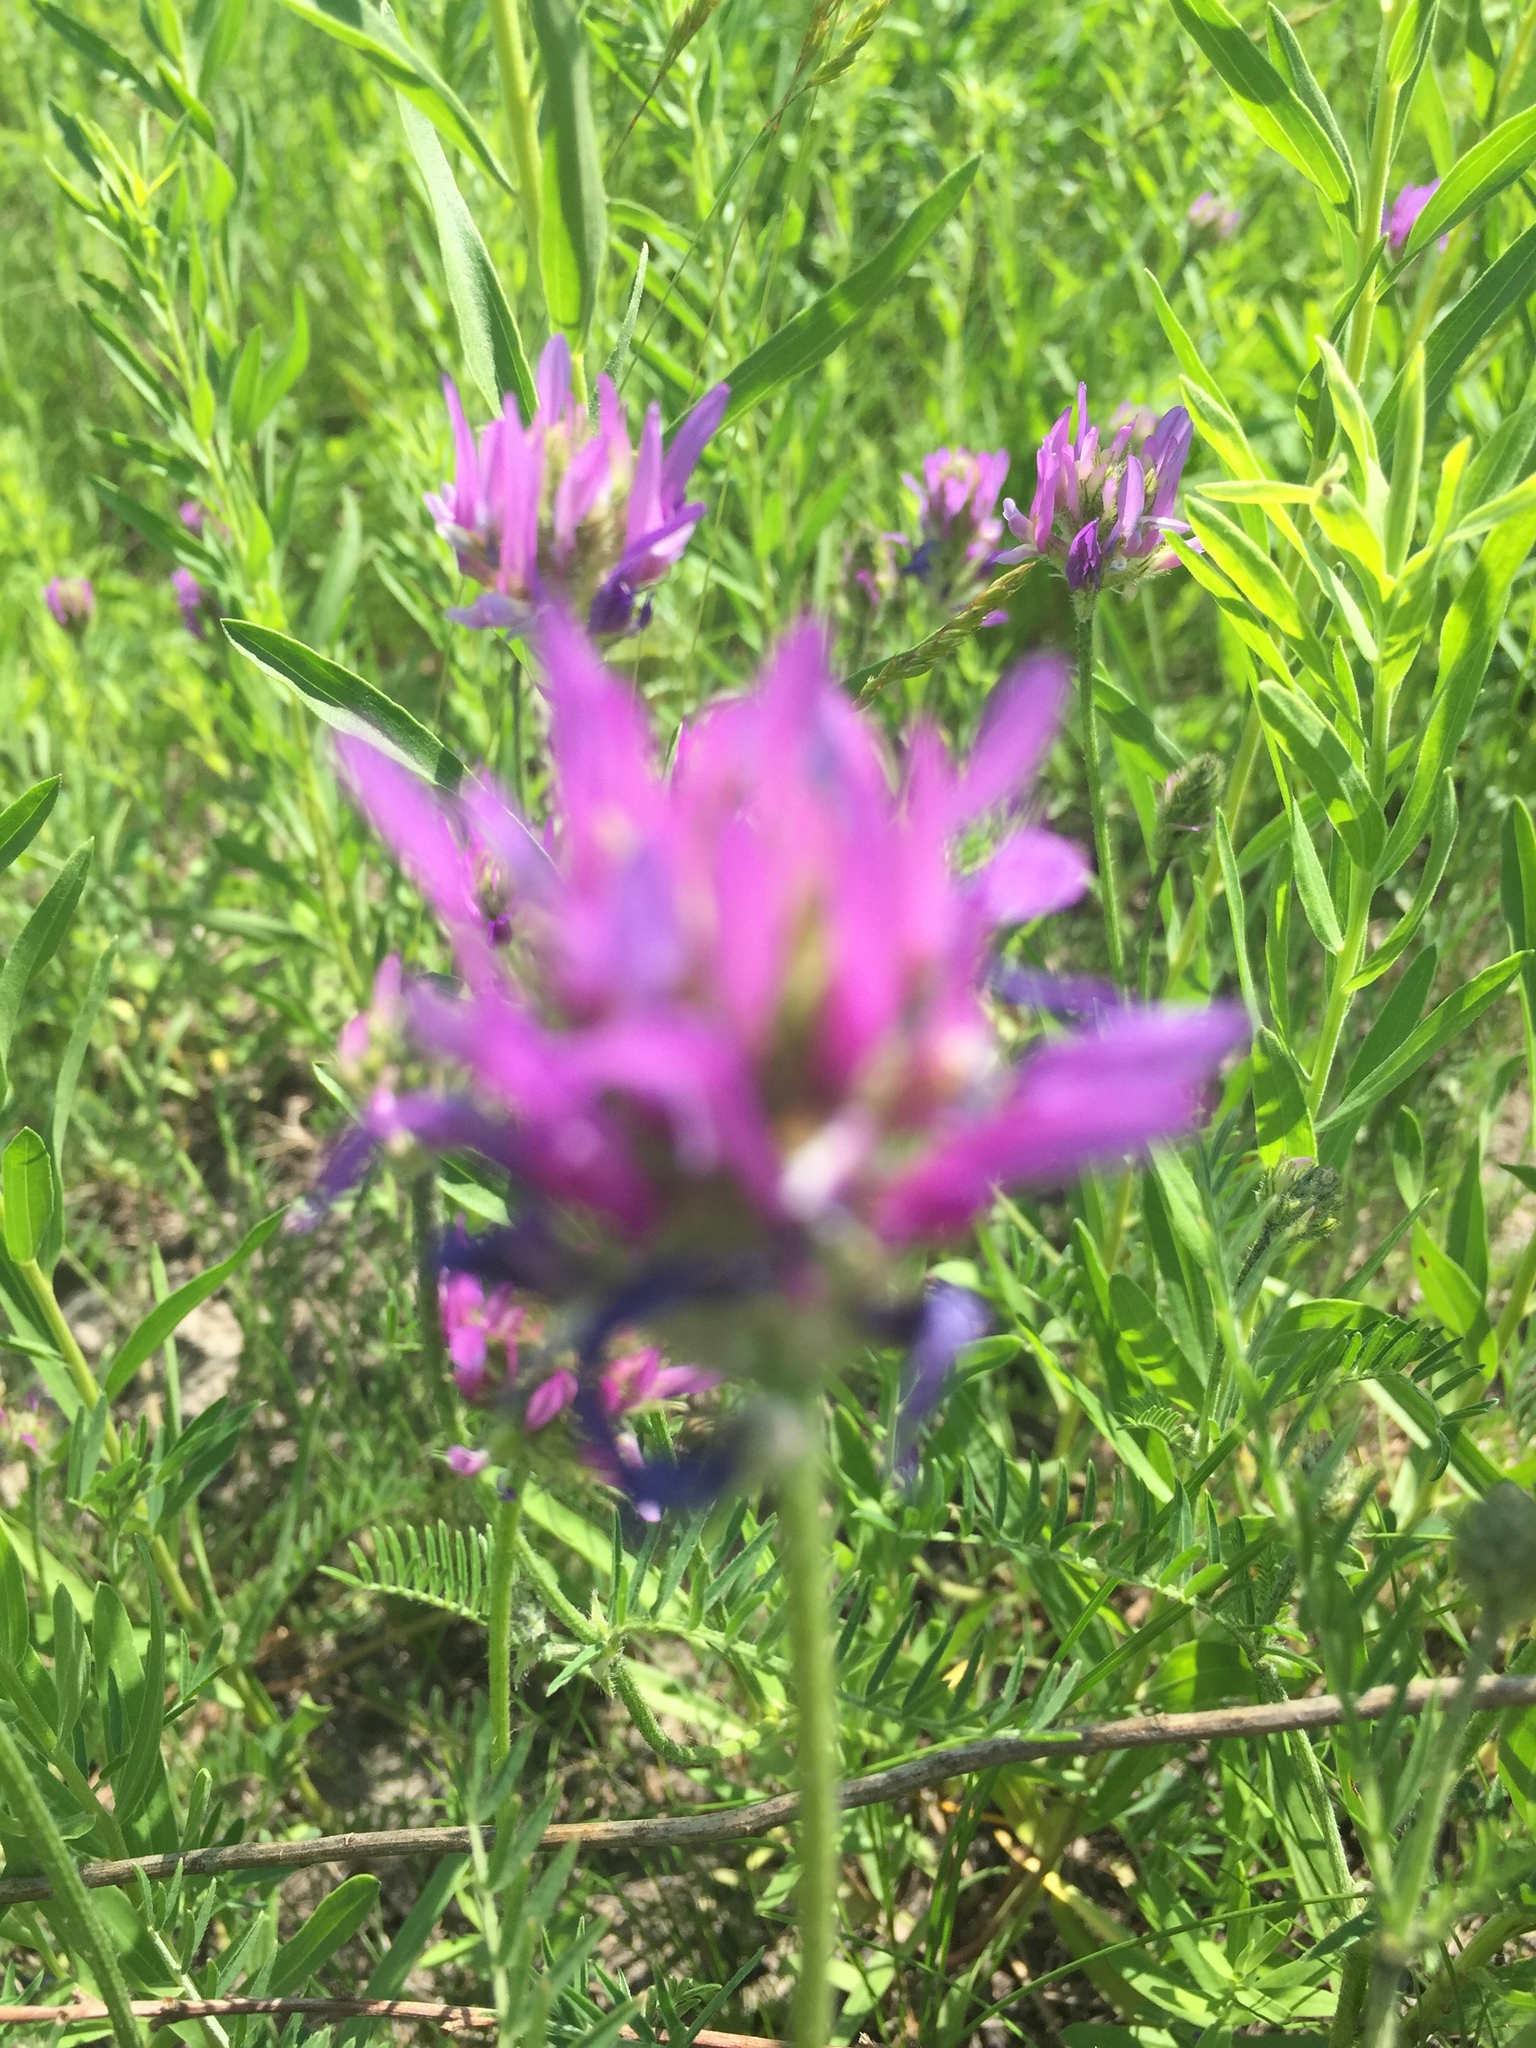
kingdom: Plantae
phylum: Tracheophyta
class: Magnoliopsida
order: Fabales
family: Fabaceae
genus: Astragalus
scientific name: Astragalus onobrychis
